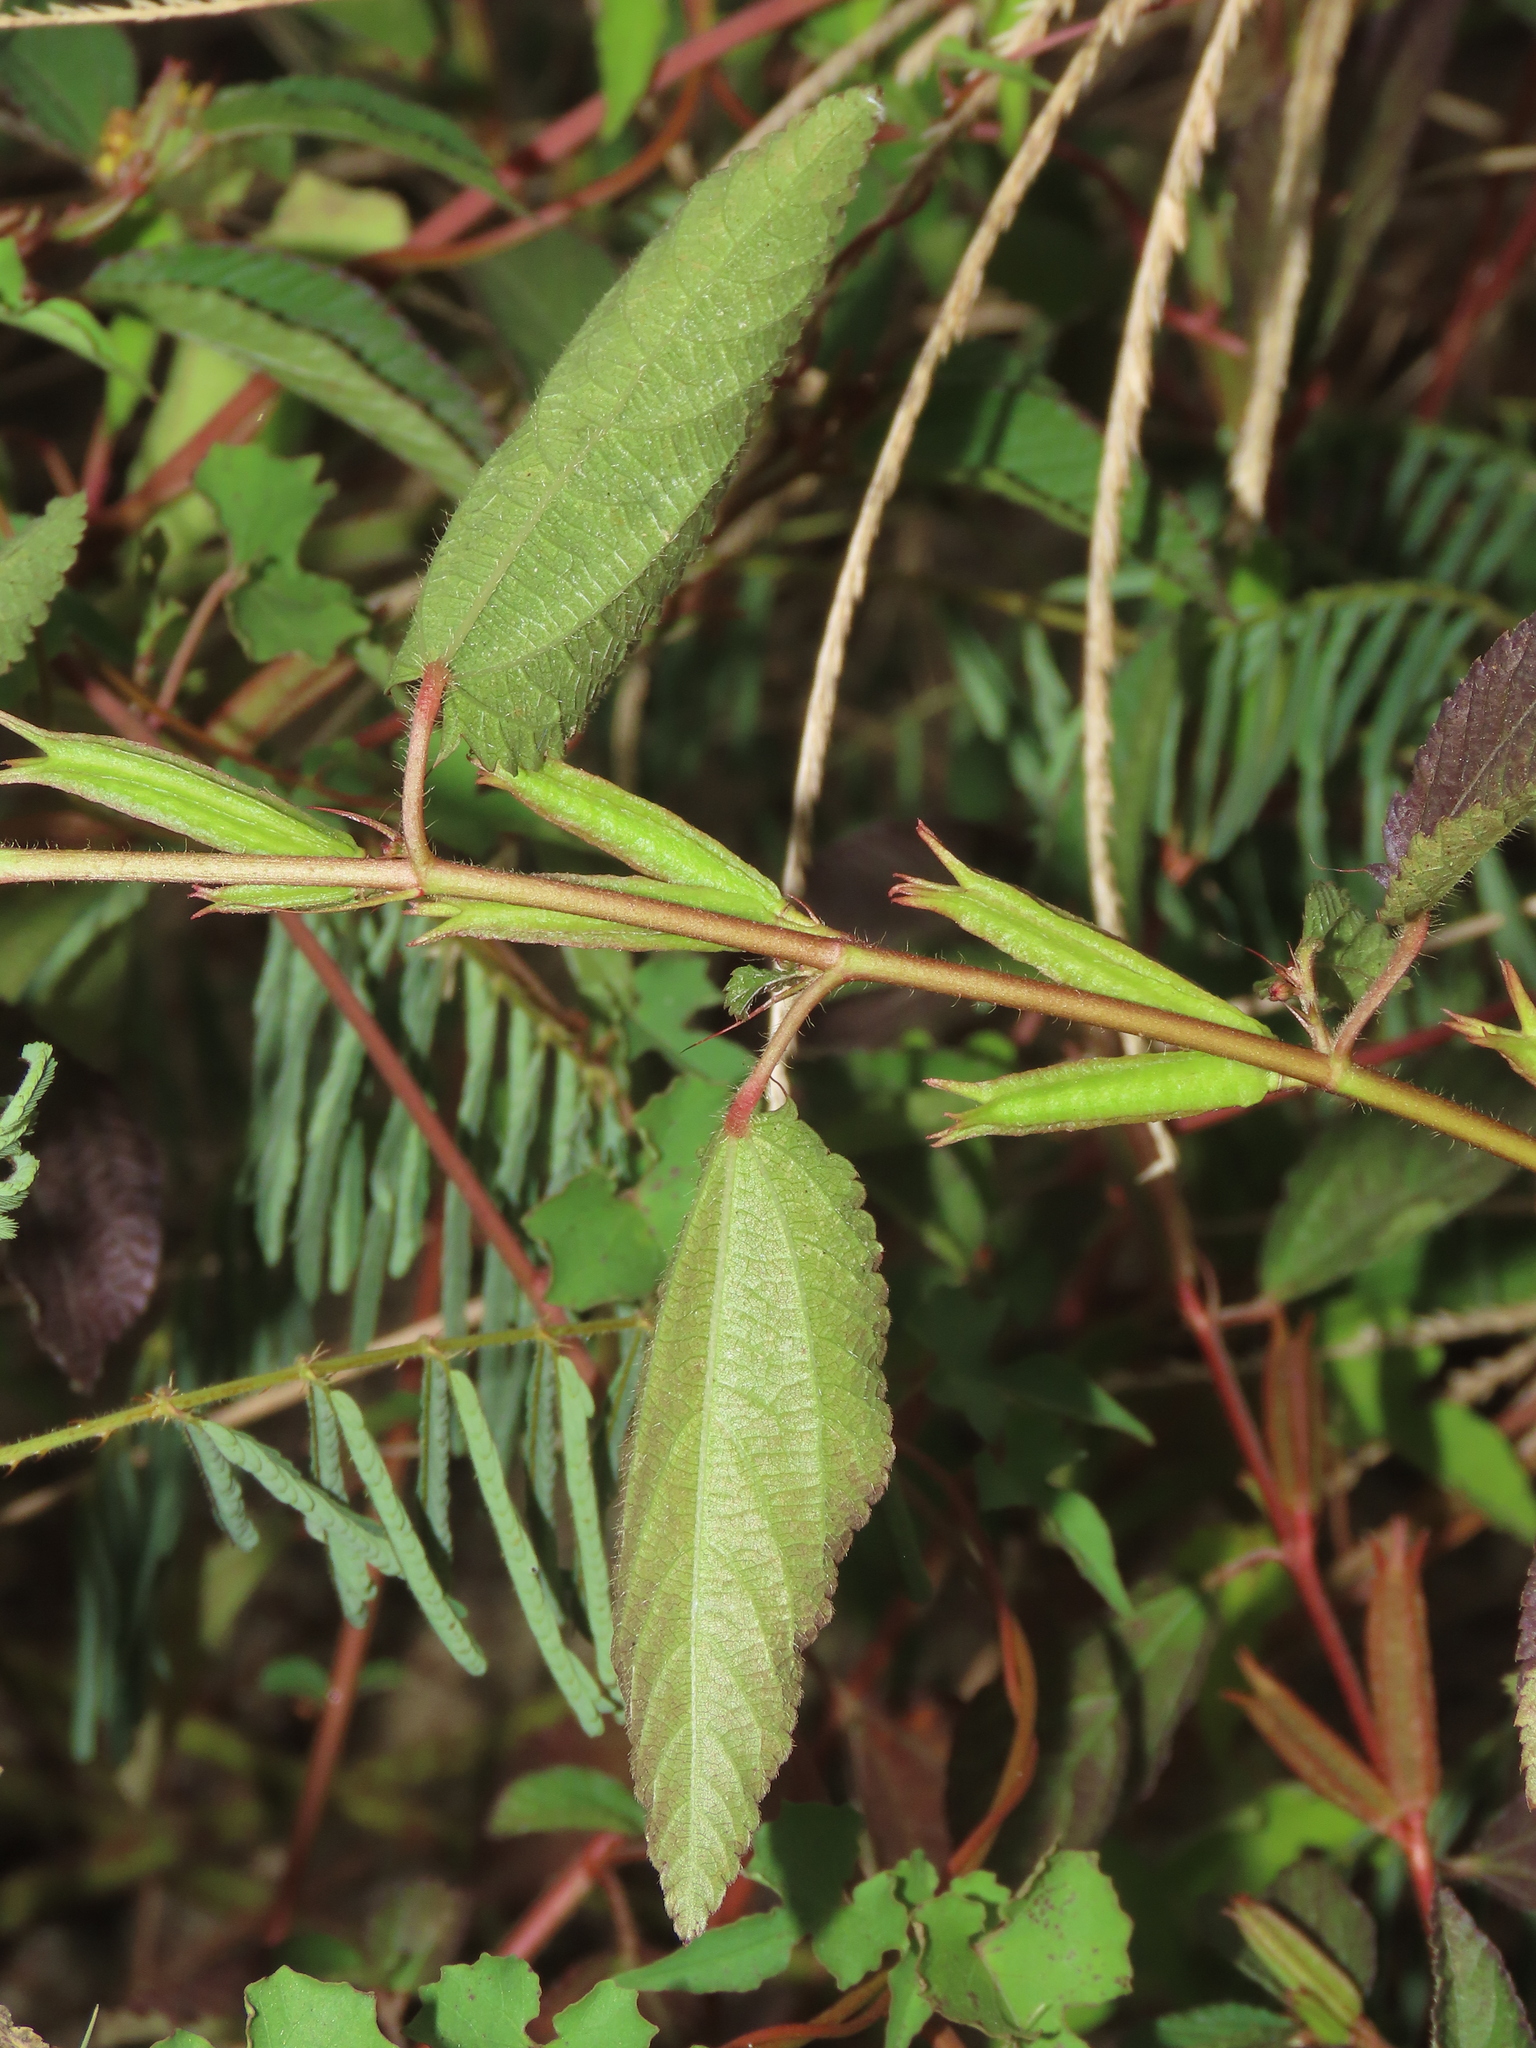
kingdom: Plantae
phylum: Tracheophyta
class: Magnoliopsida
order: Malvales
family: Malvaceae
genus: Corchorus
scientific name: Corchorus aestuans
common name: Jute
